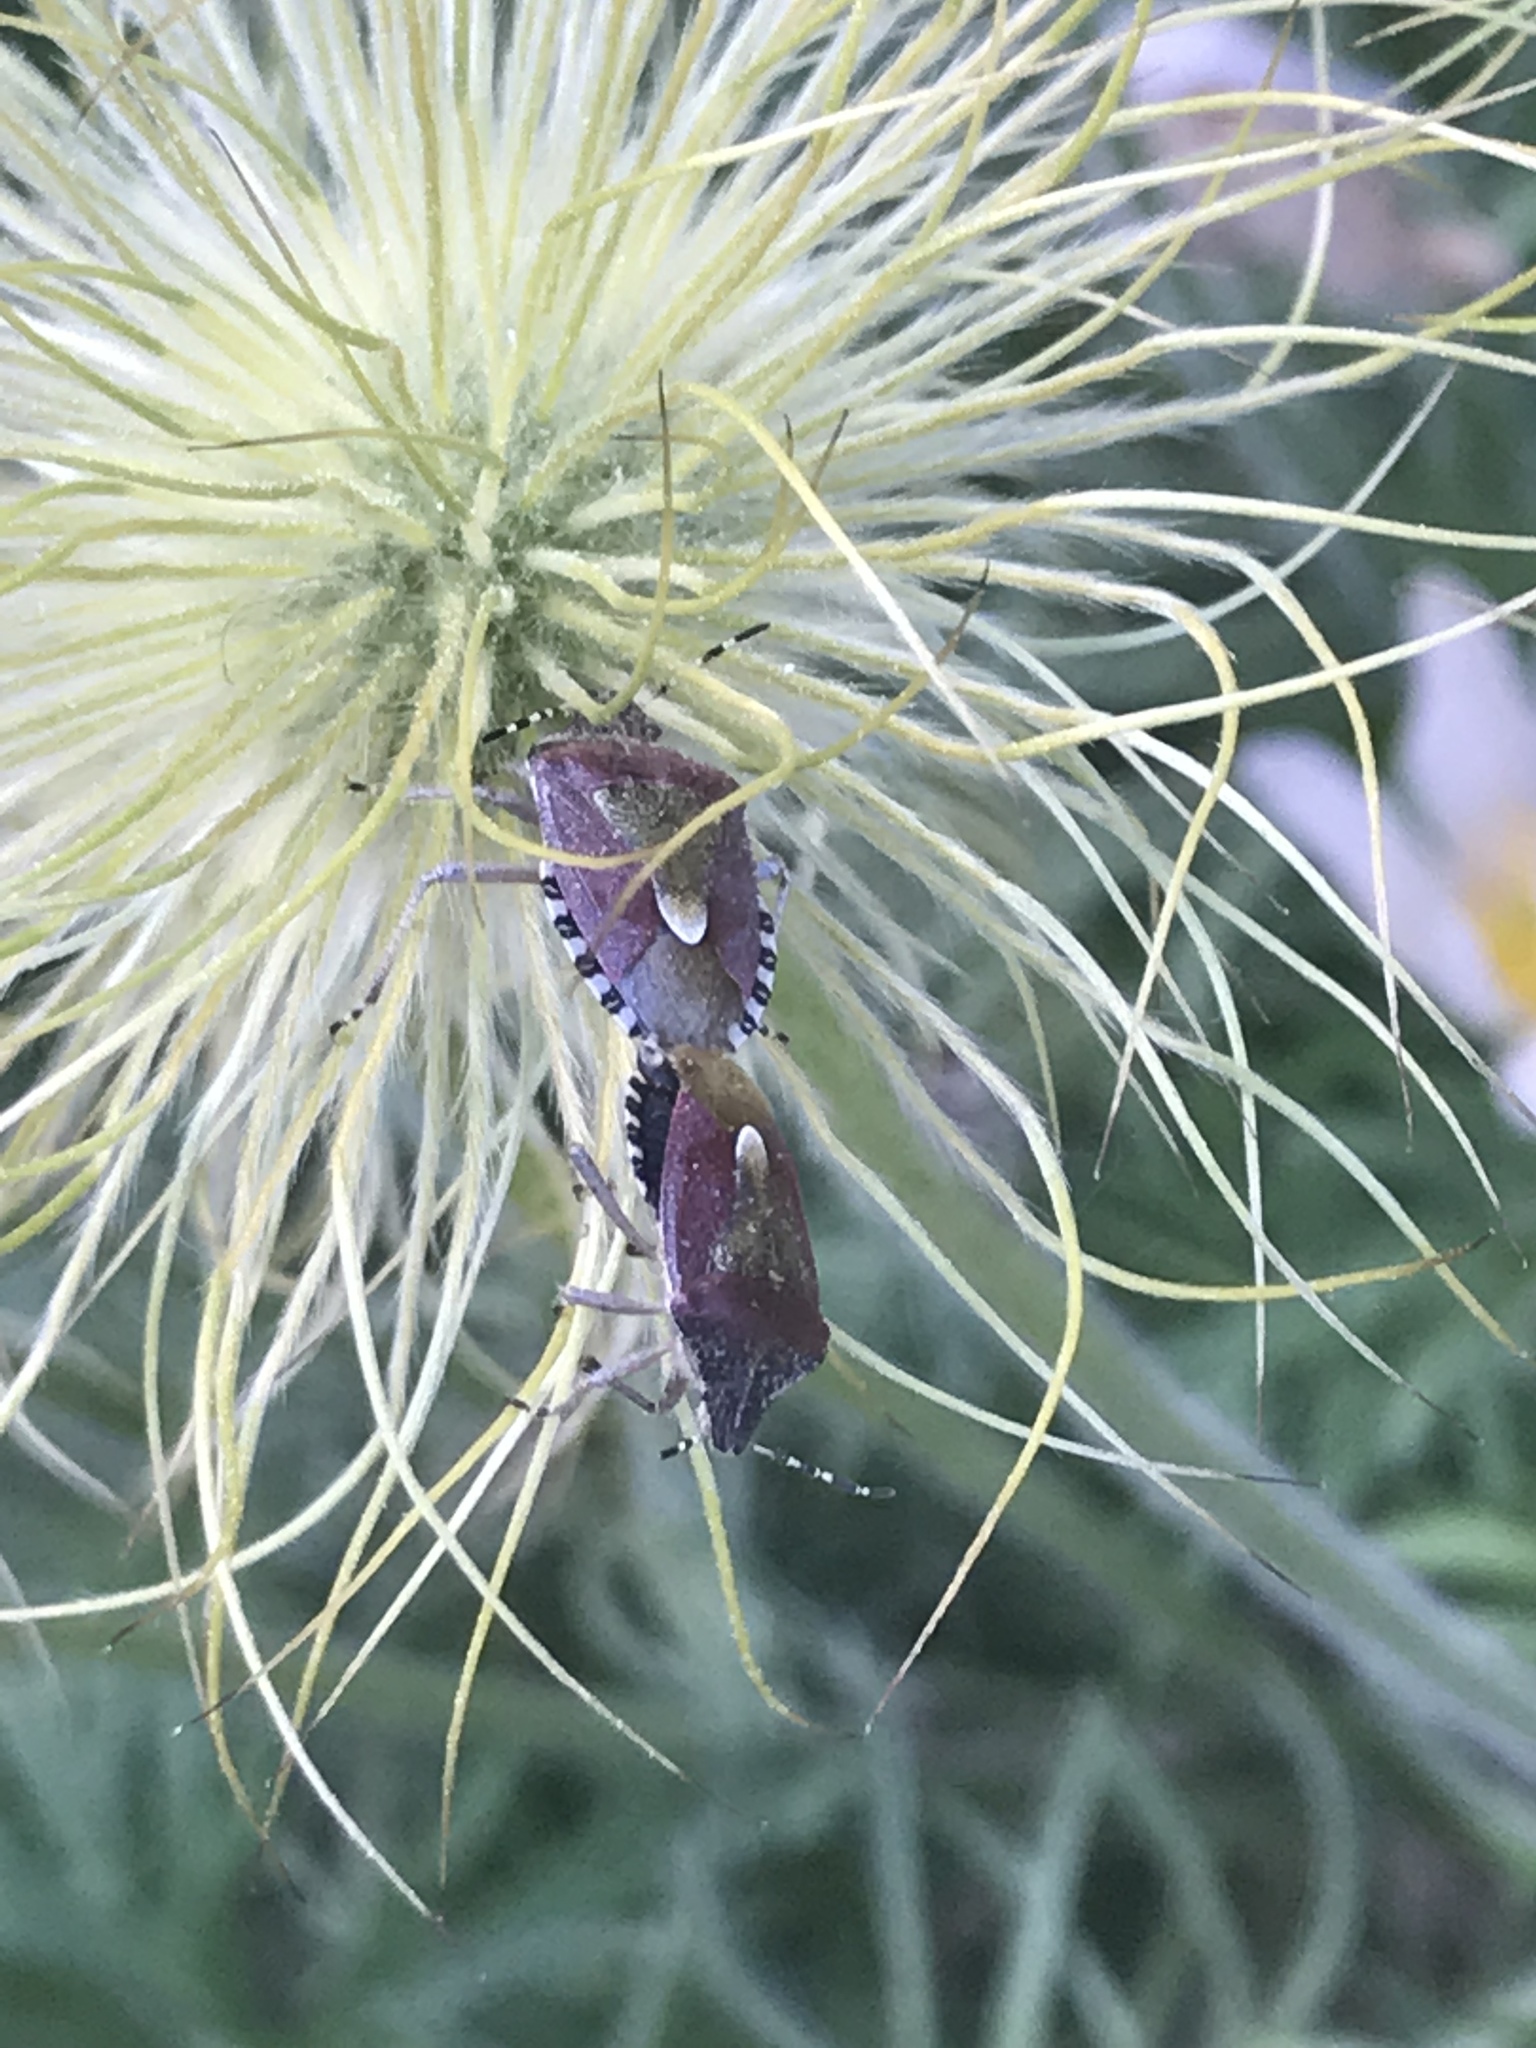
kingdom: Animalia
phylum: Arthropoda
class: Insecta
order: Hemiptera
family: Pentatomidae
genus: Dolycoris
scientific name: Dolycoris baccarum
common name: Sloe bug
